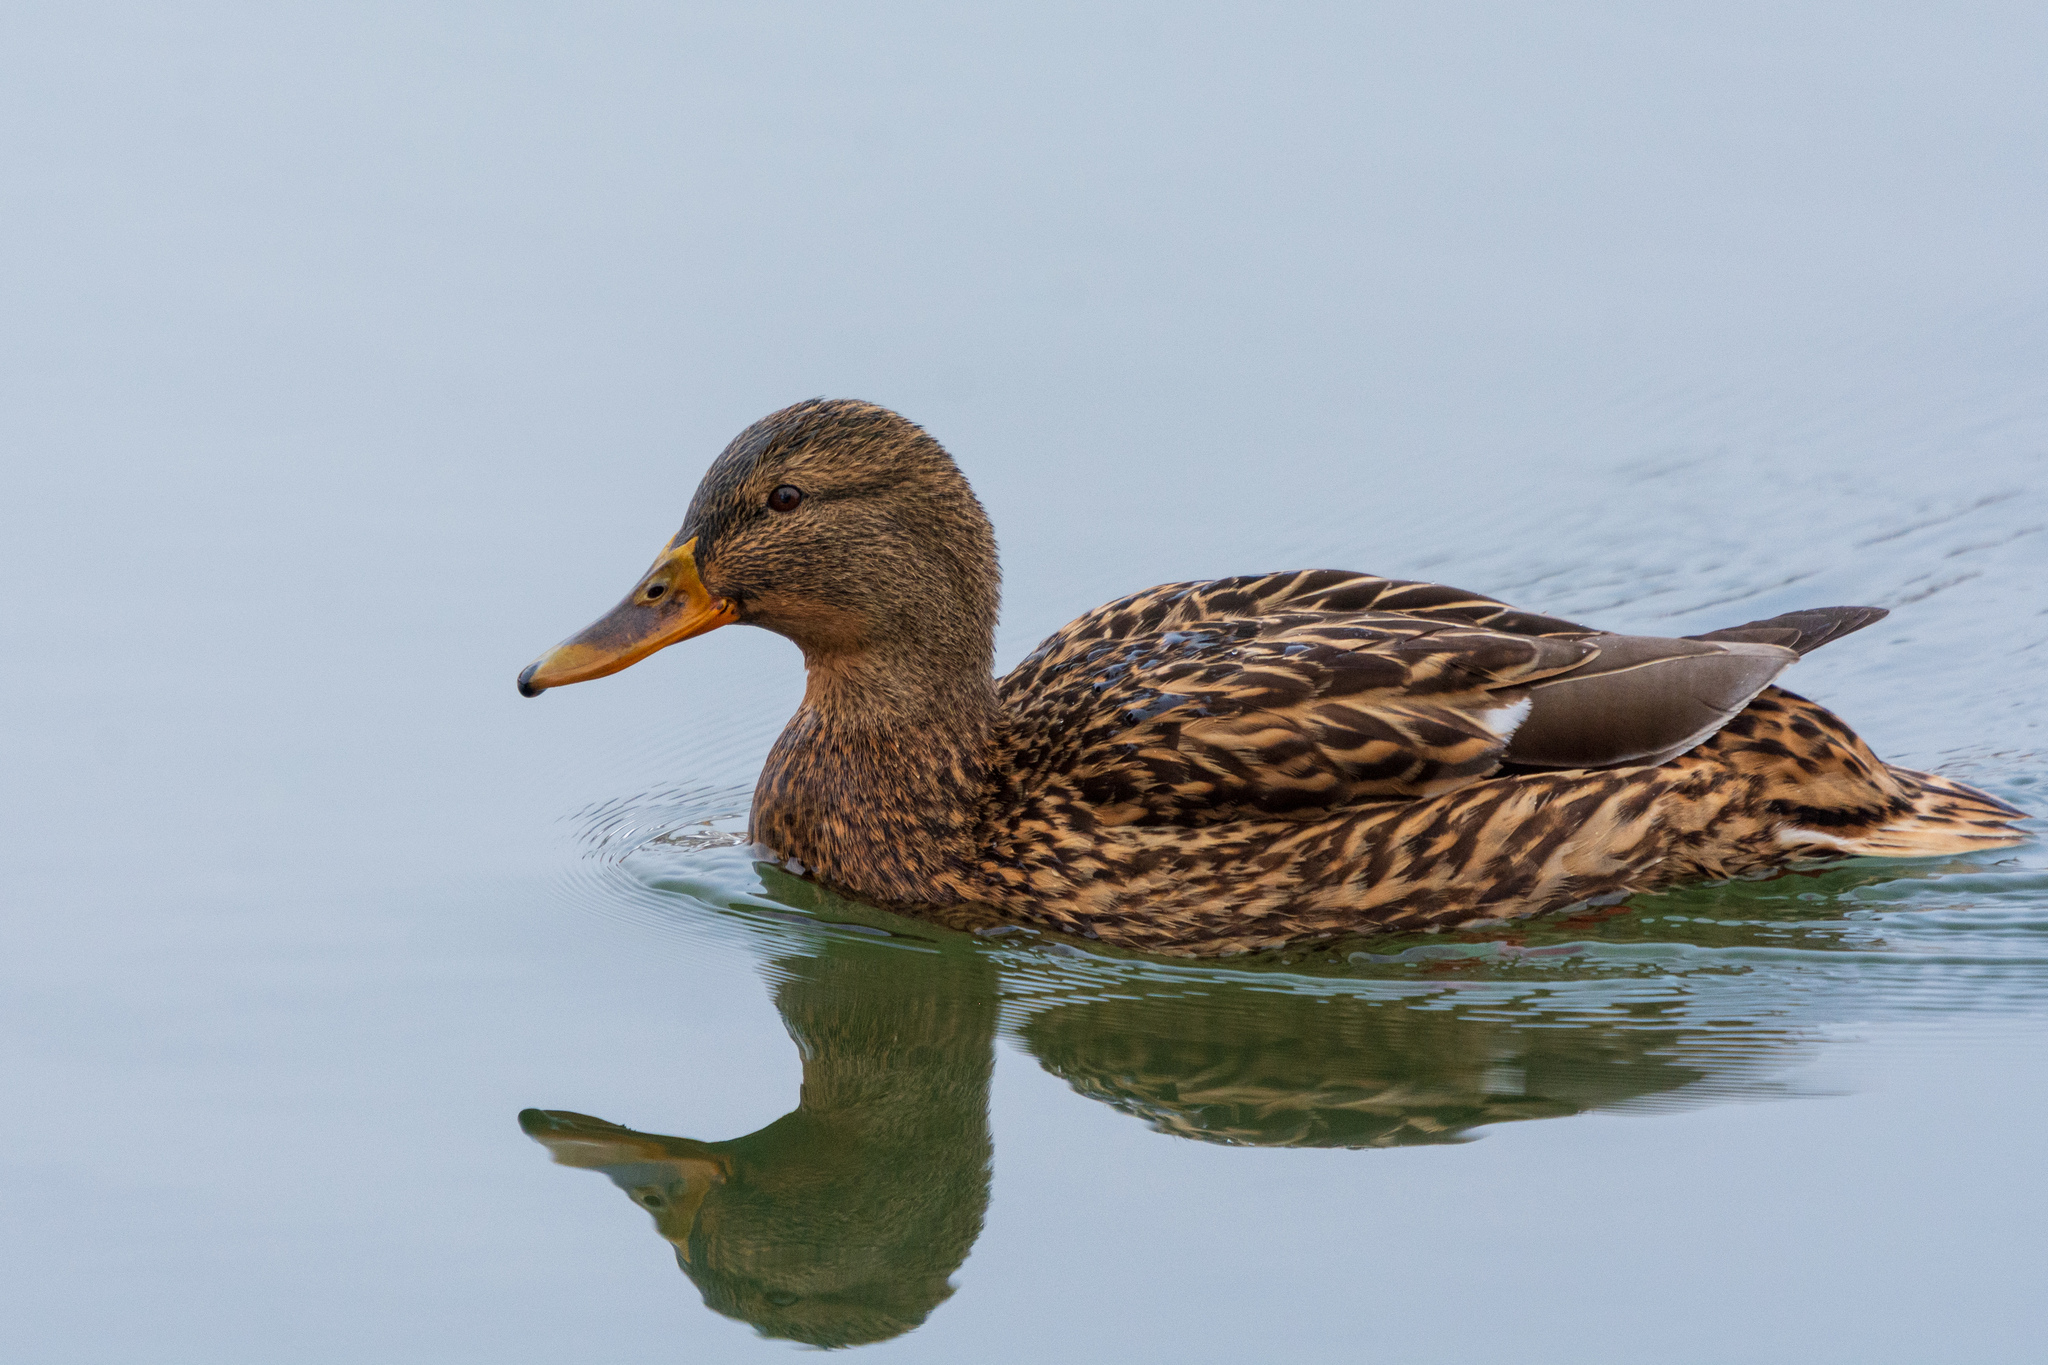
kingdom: Animalia
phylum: Chordata
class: Aves
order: Anseriformes
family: Anatidae
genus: Anas
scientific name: Anas platyrhynchos
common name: Mallard
